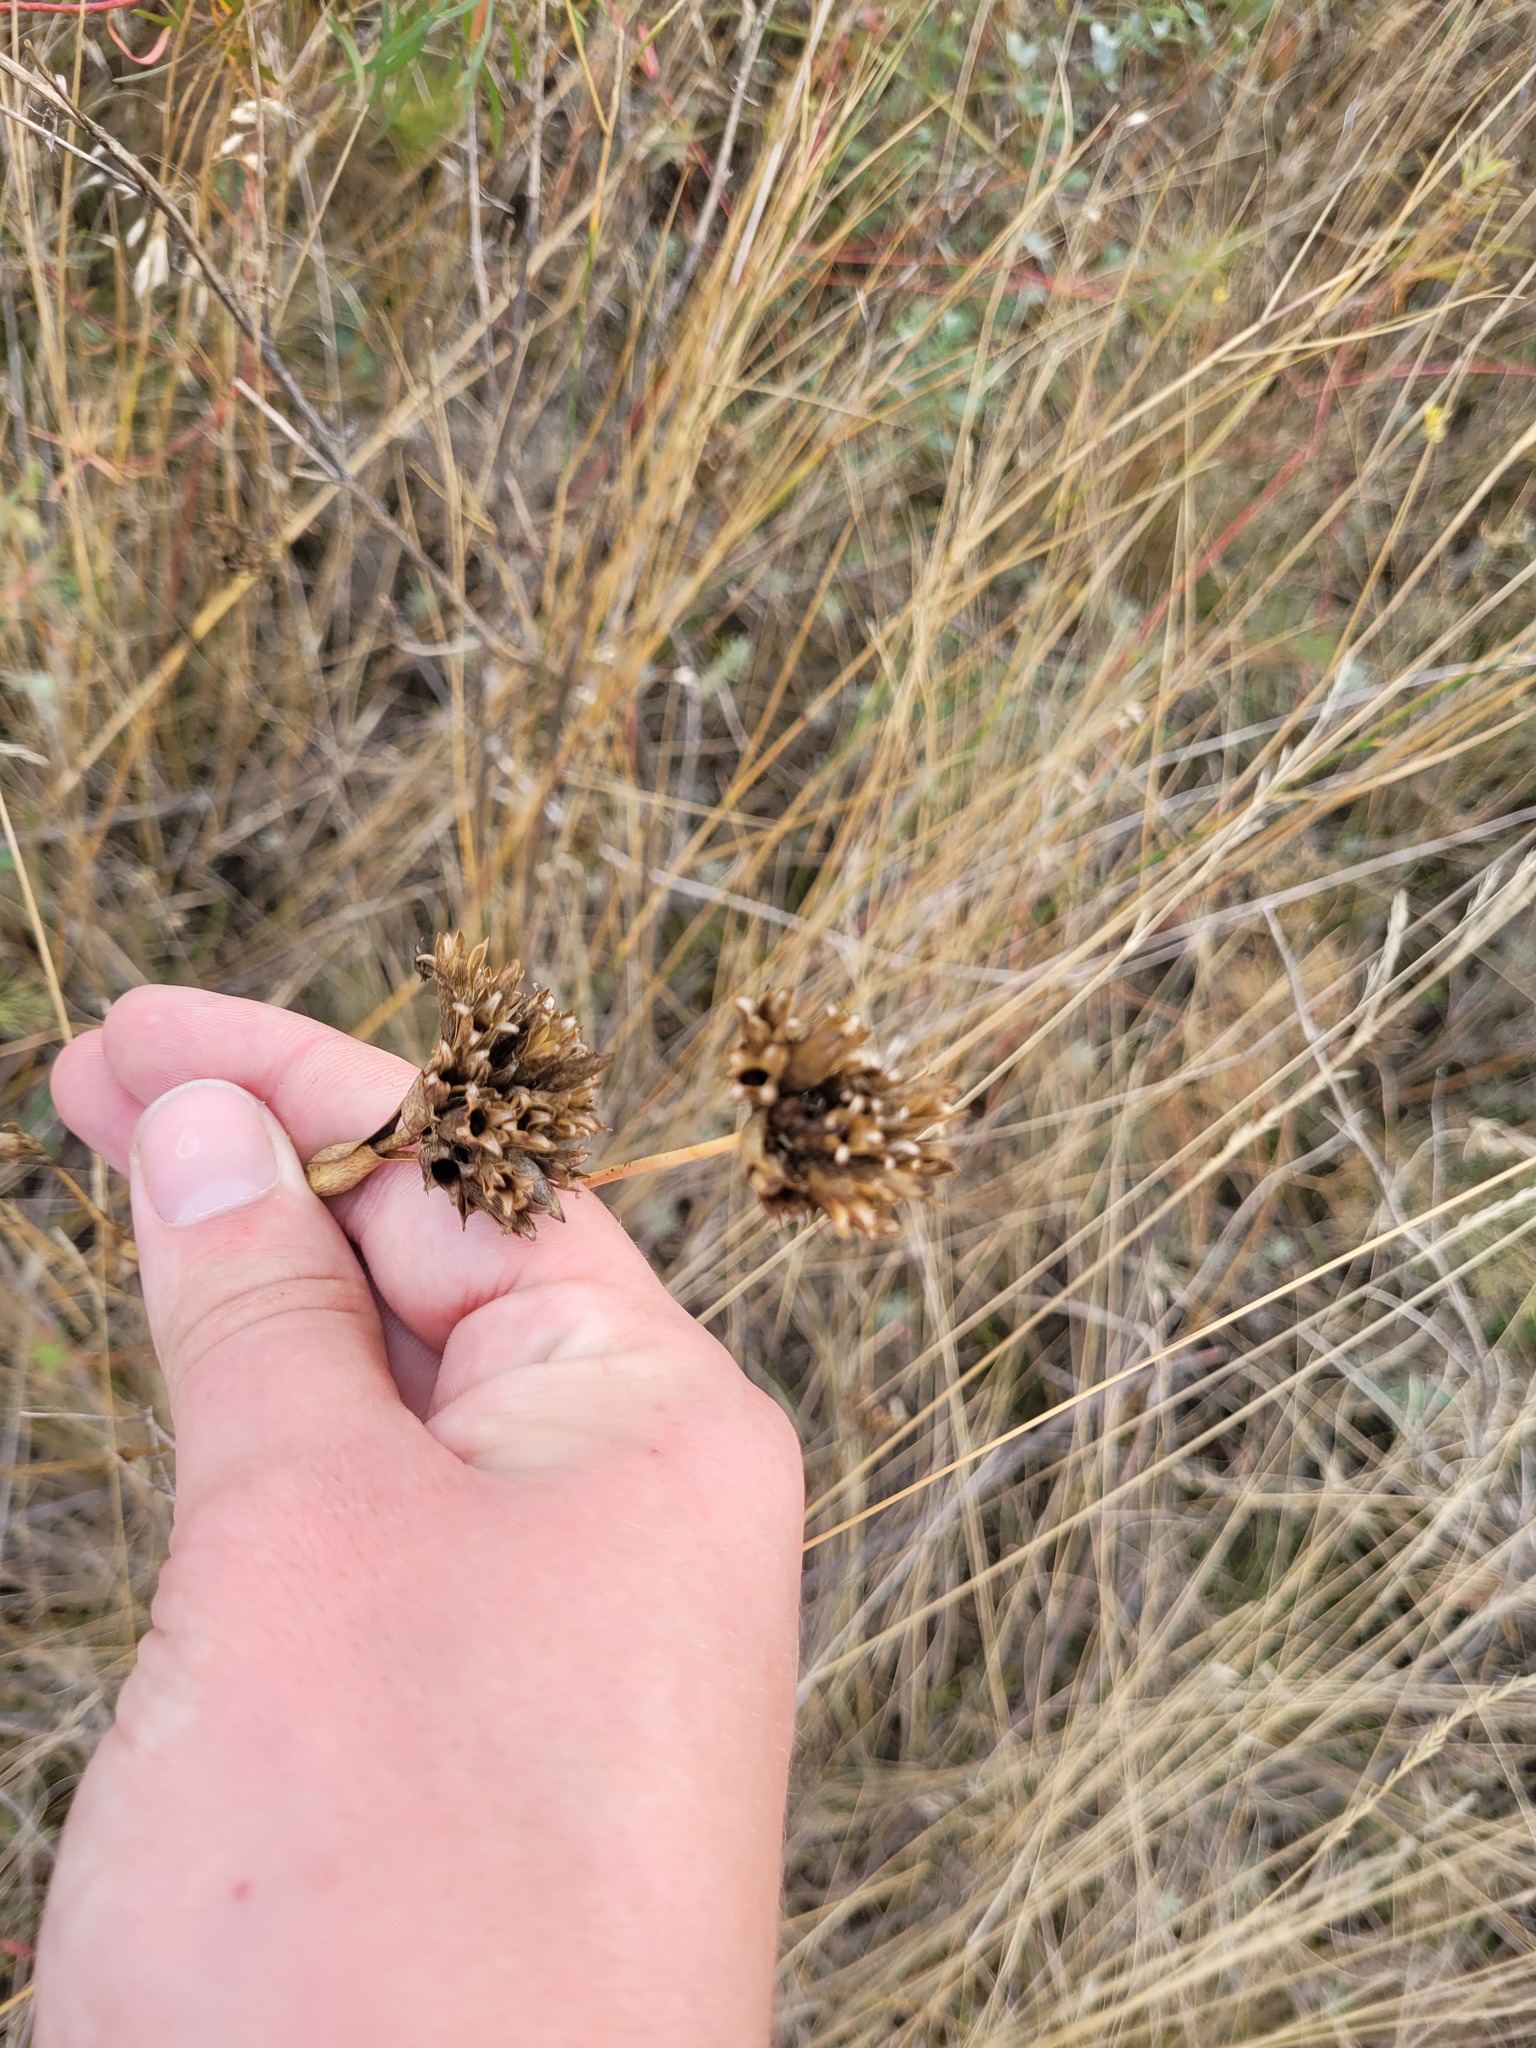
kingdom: Plantae
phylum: Tracheophyta
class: Magnoliopsida
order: Caryophyllales
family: Caryophyllaceae
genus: Dianthus
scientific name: Dianthus capitatus
